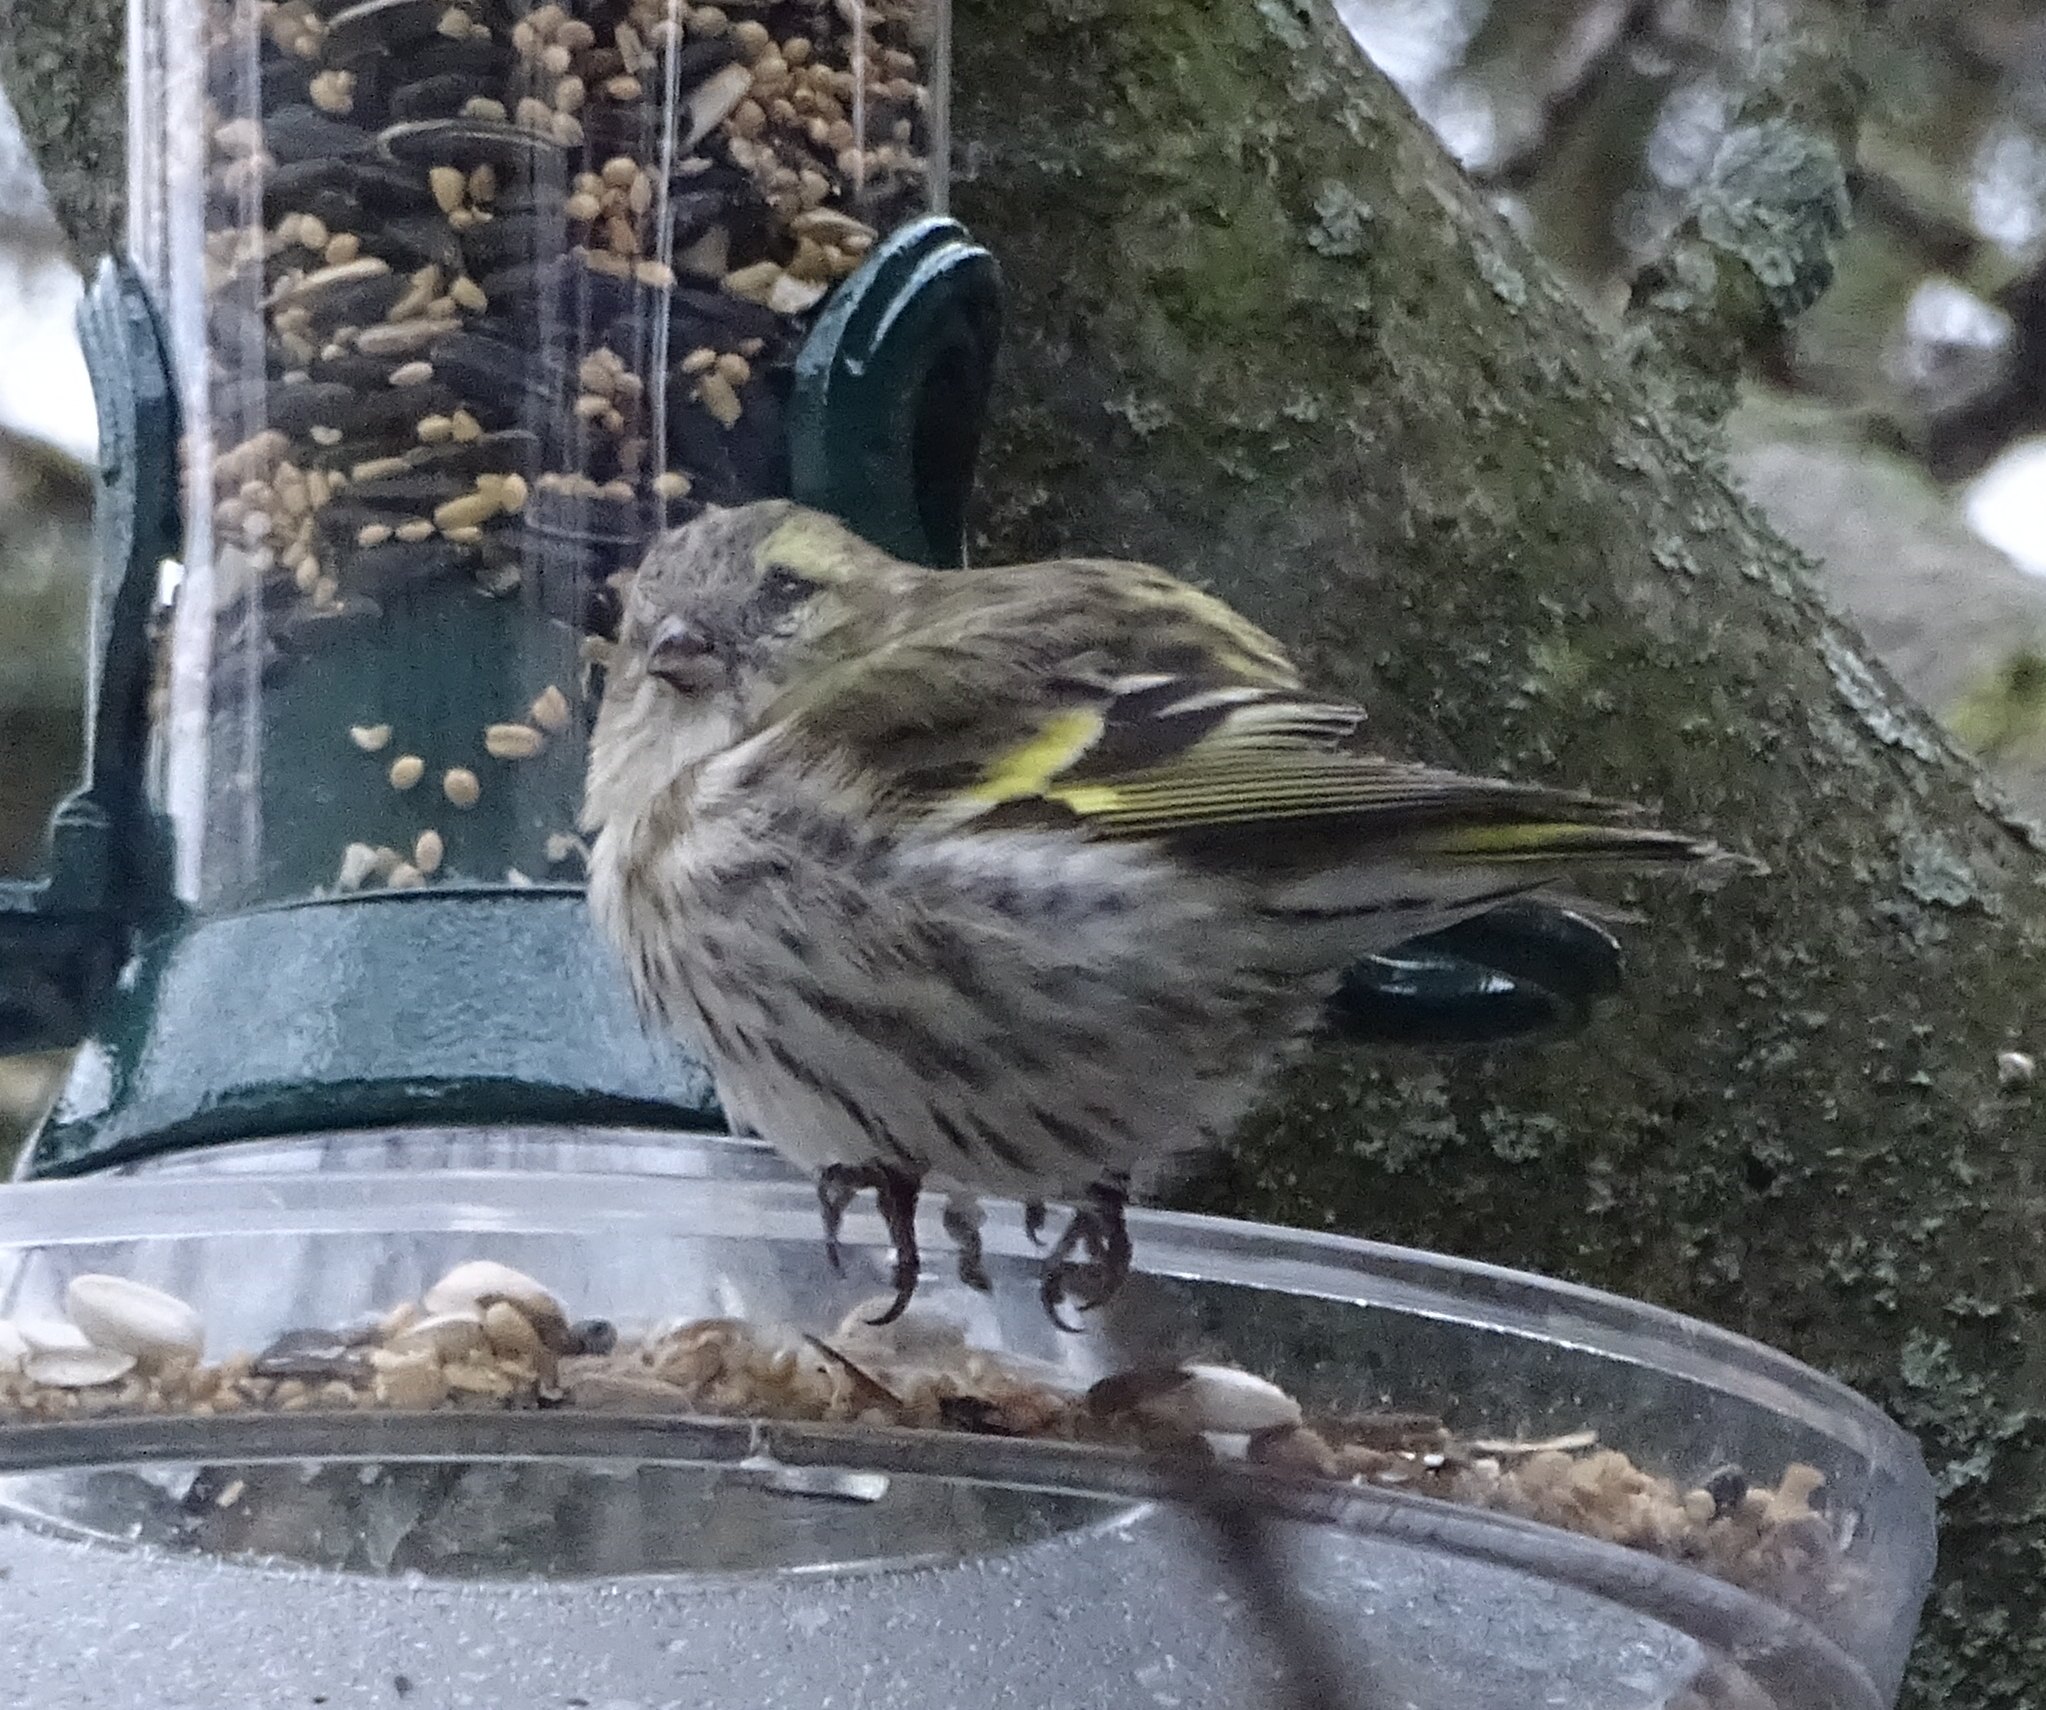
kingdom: Animalia
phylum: Chordata
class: Aves
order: Passeriformes
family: Fringillidae
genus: Spinus
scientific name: Spinus spinus
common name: Eurasian siskin
